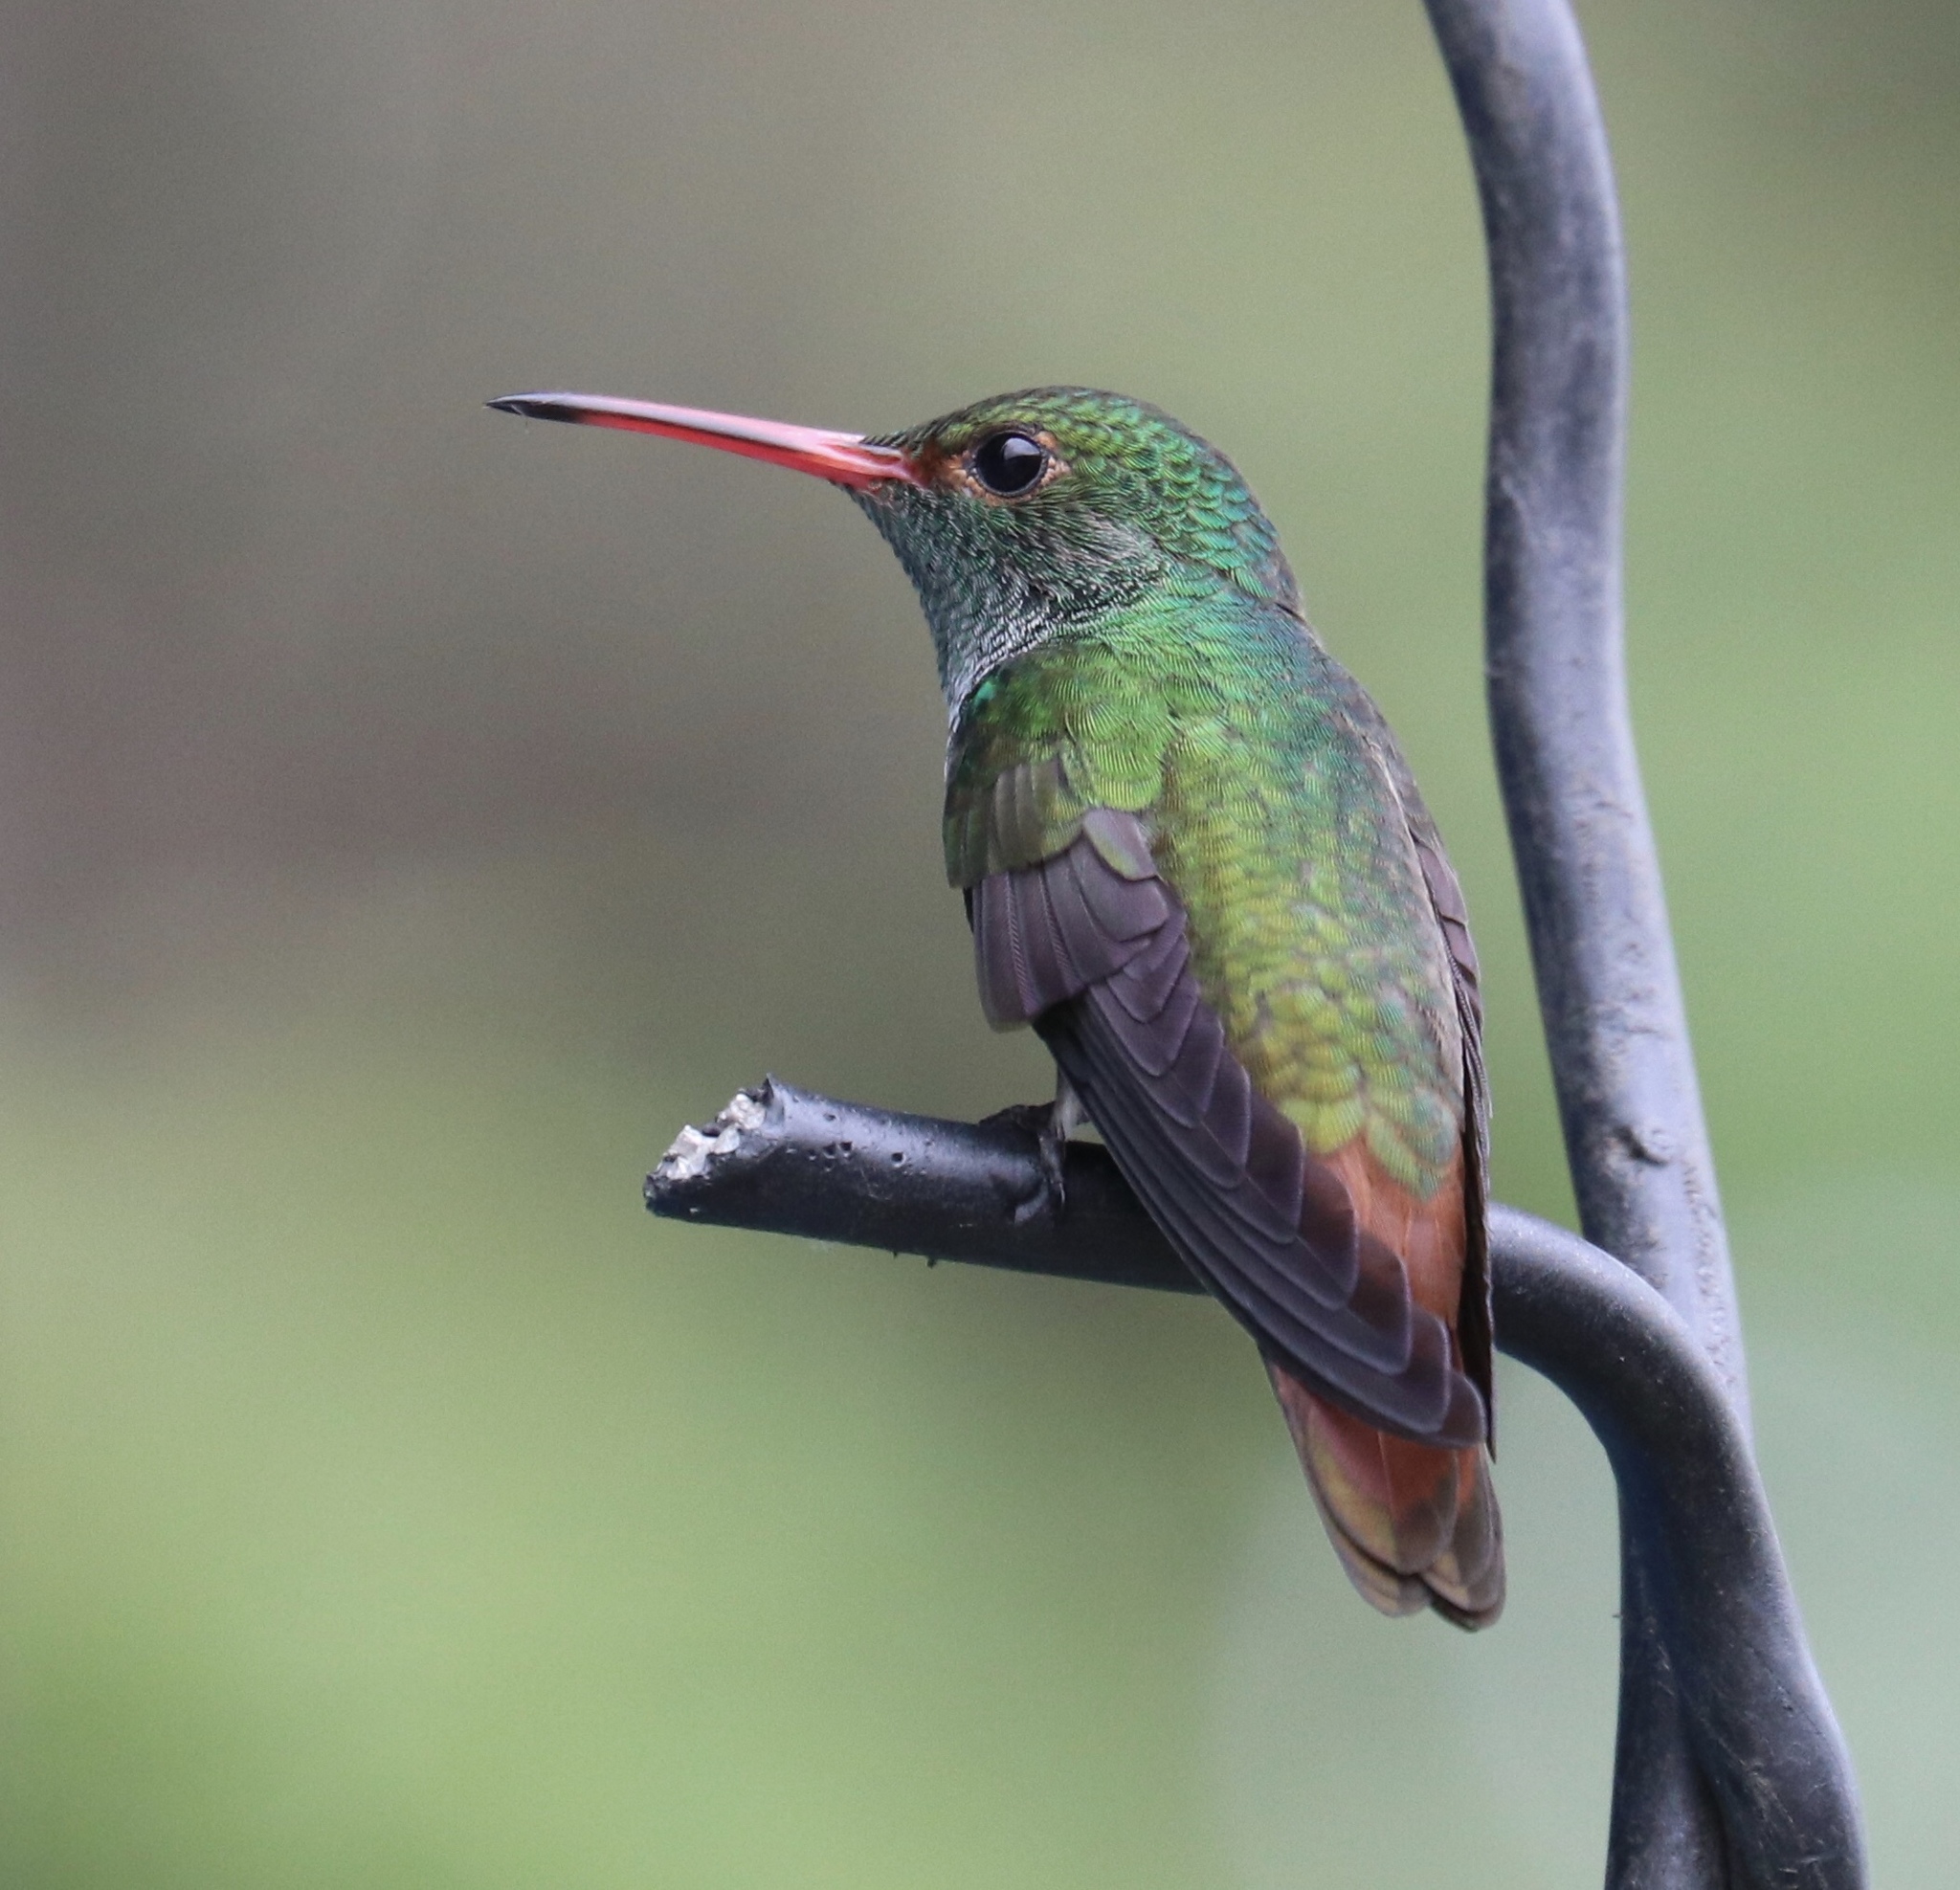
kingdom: Animalia
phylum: Chordata
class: Aves
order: Apodiformes
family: Trochilidae
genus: Amazilia
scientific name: Amazilia tzacatl
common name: Rufous-tailed hummingbird
